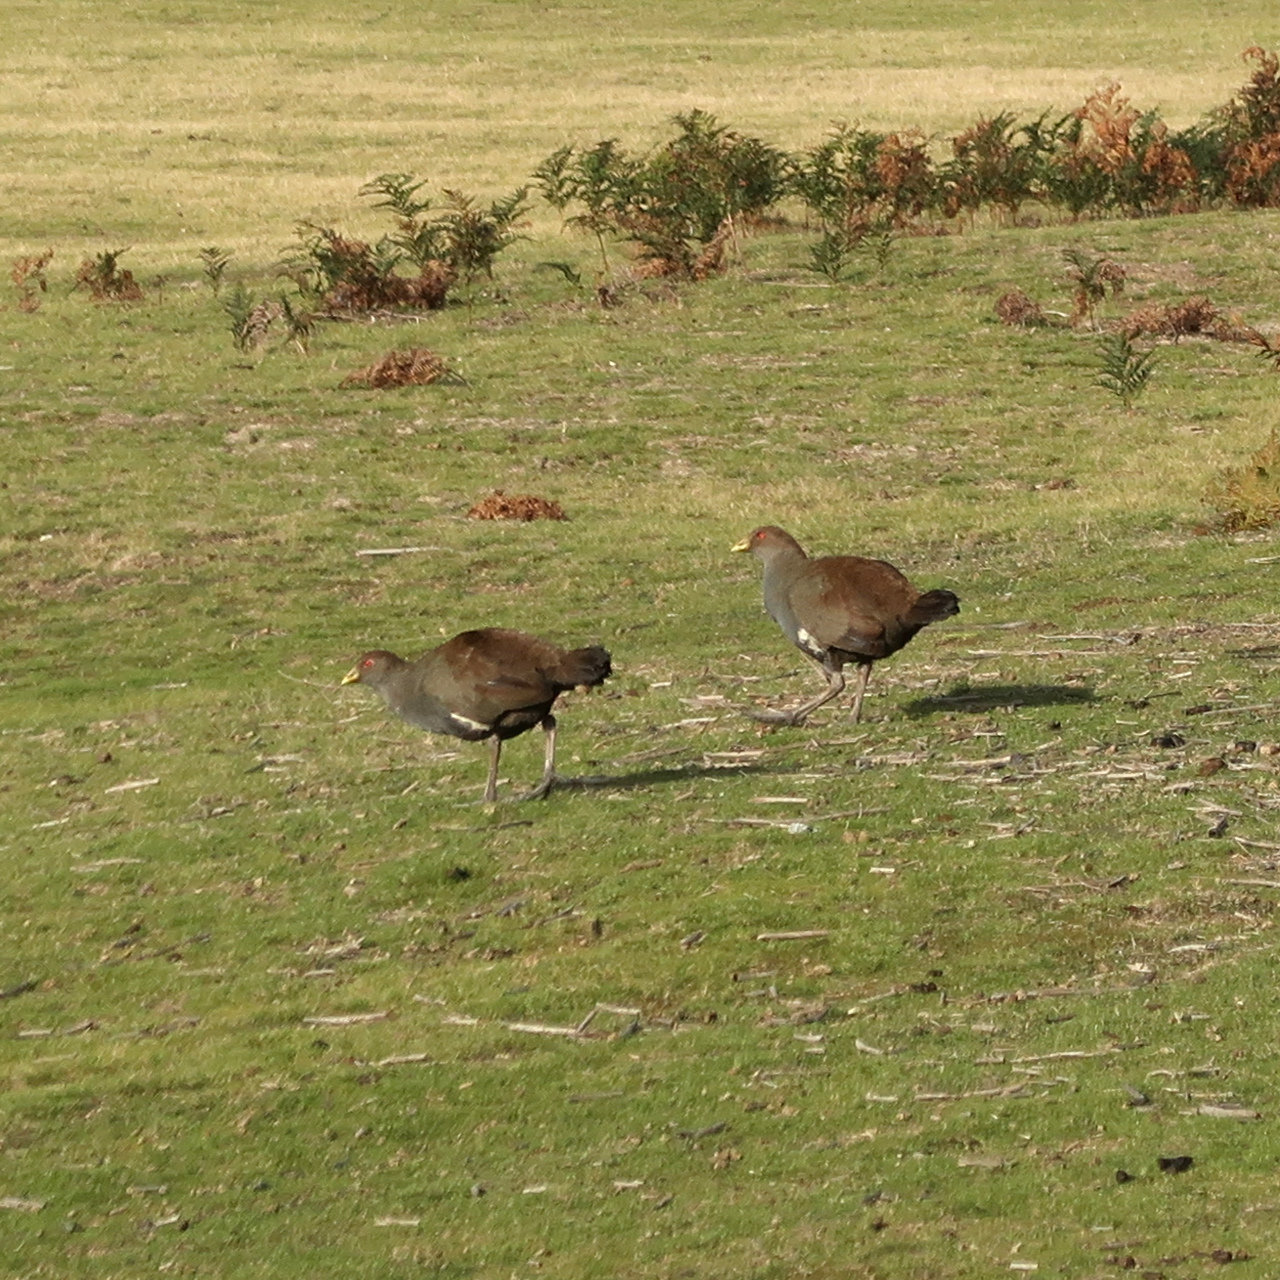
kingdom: Animalia
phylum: Chordata
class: Aves
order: Gruiformes
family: Rallidae
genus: Gallinula
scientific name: Gallinula mortierii
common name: Tasmanian nativehen
